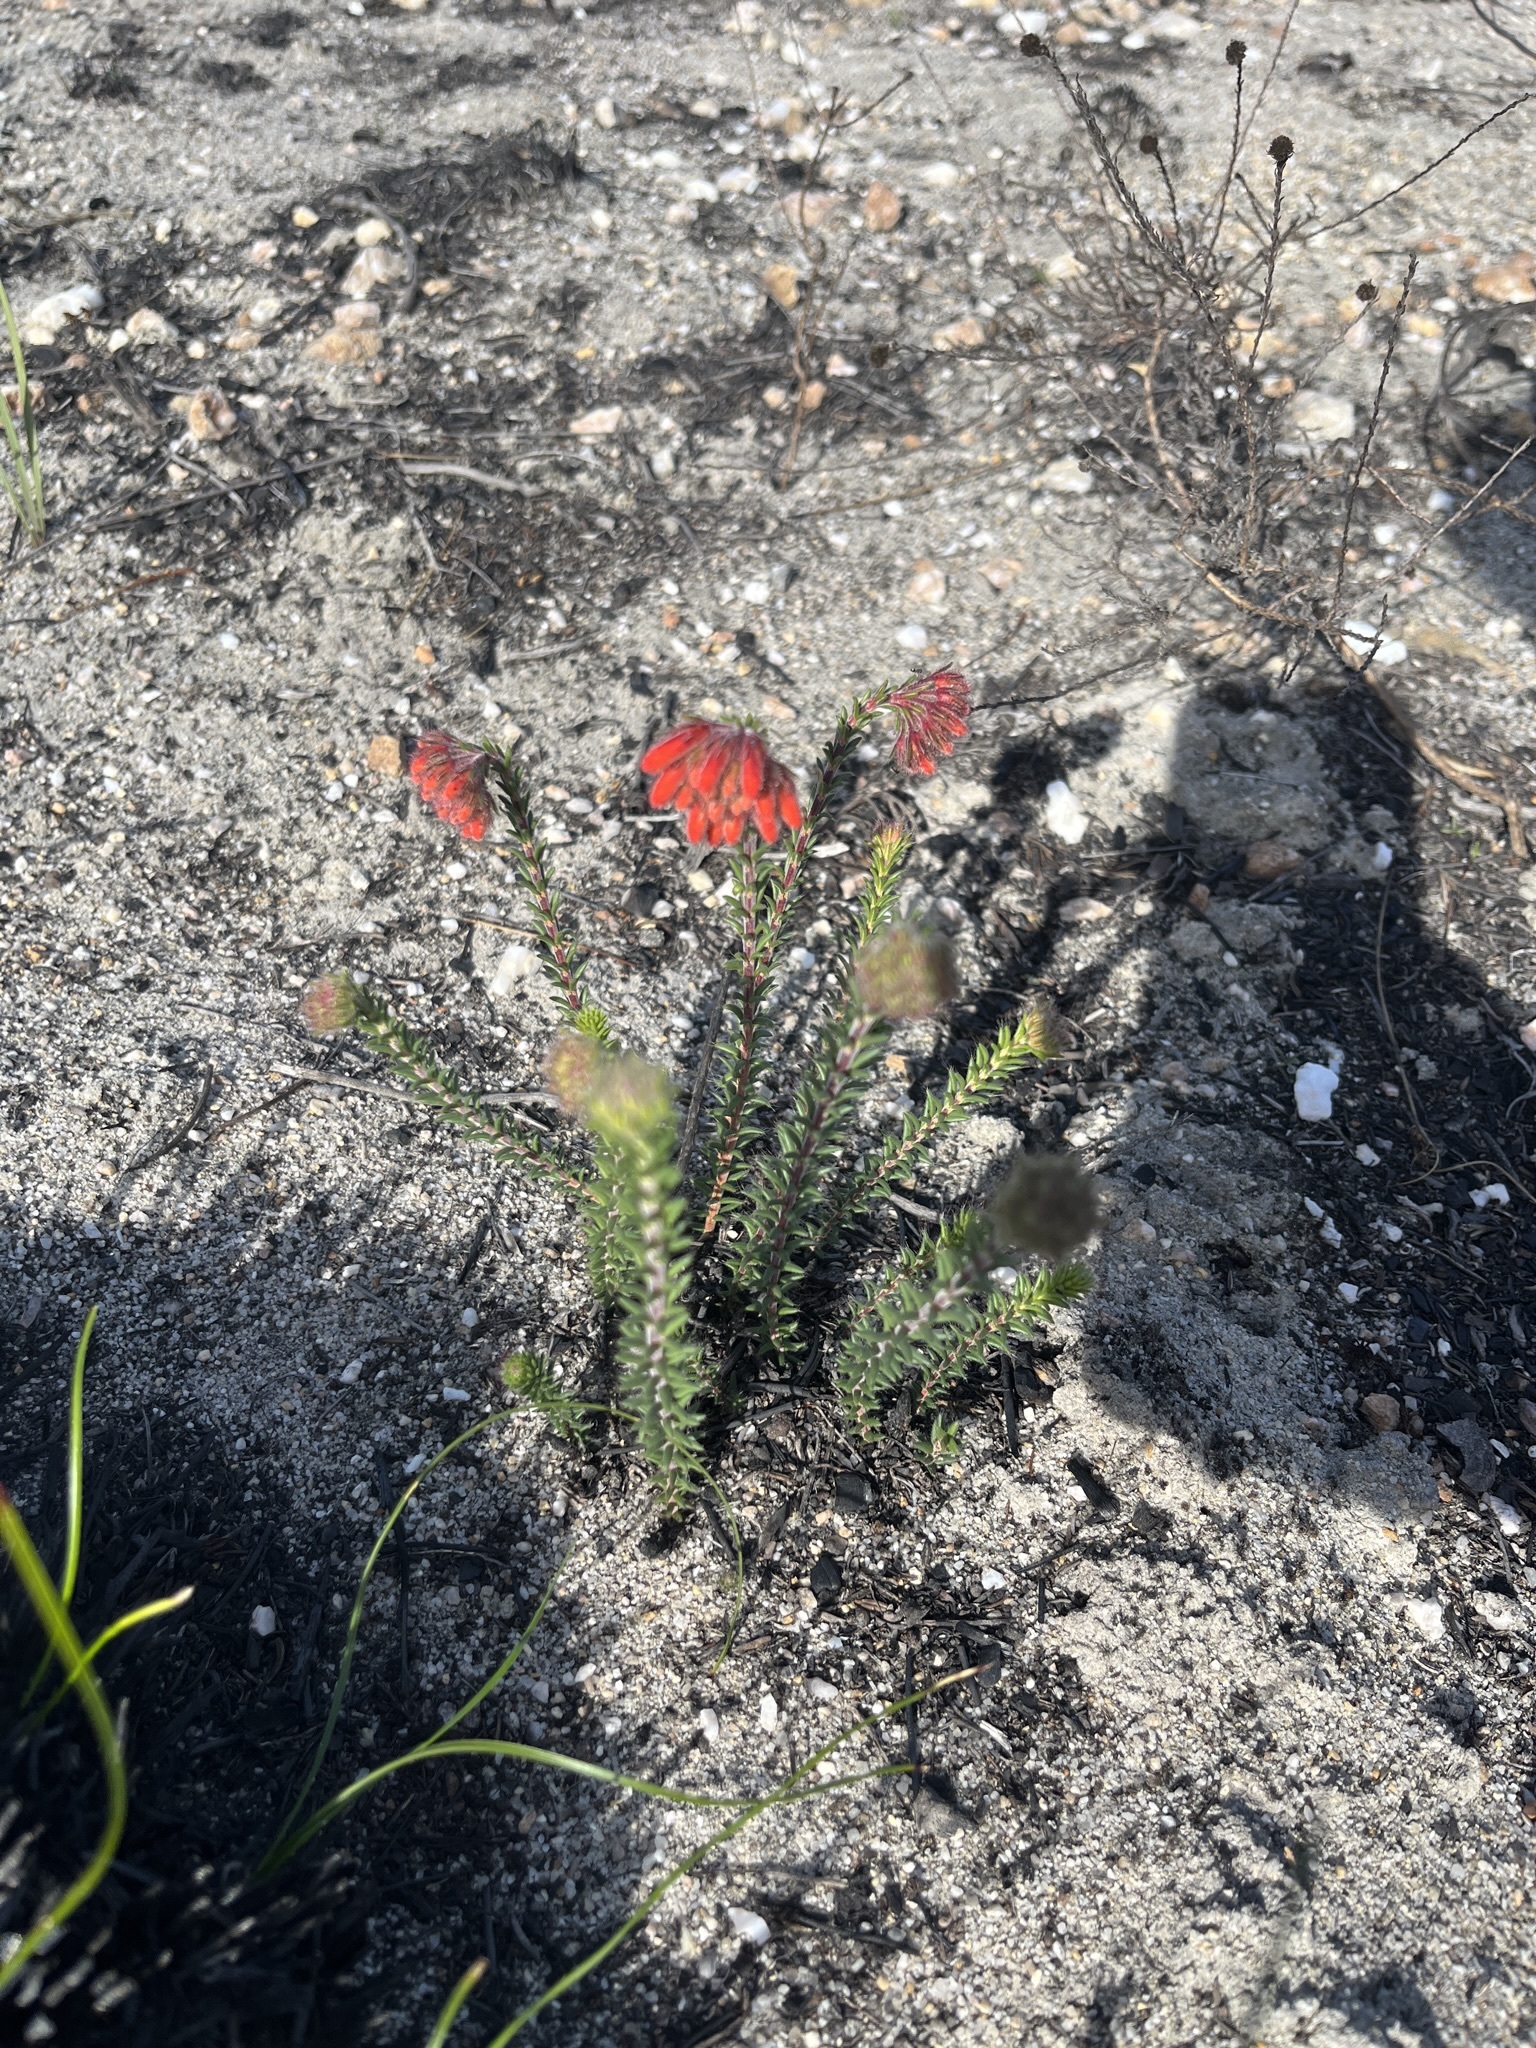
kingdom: Plantae
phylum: Tracheophyta
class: Magnoliopsida
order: Ericales
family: Ericaceae
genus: Erica
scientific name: Erica cerinthoides
